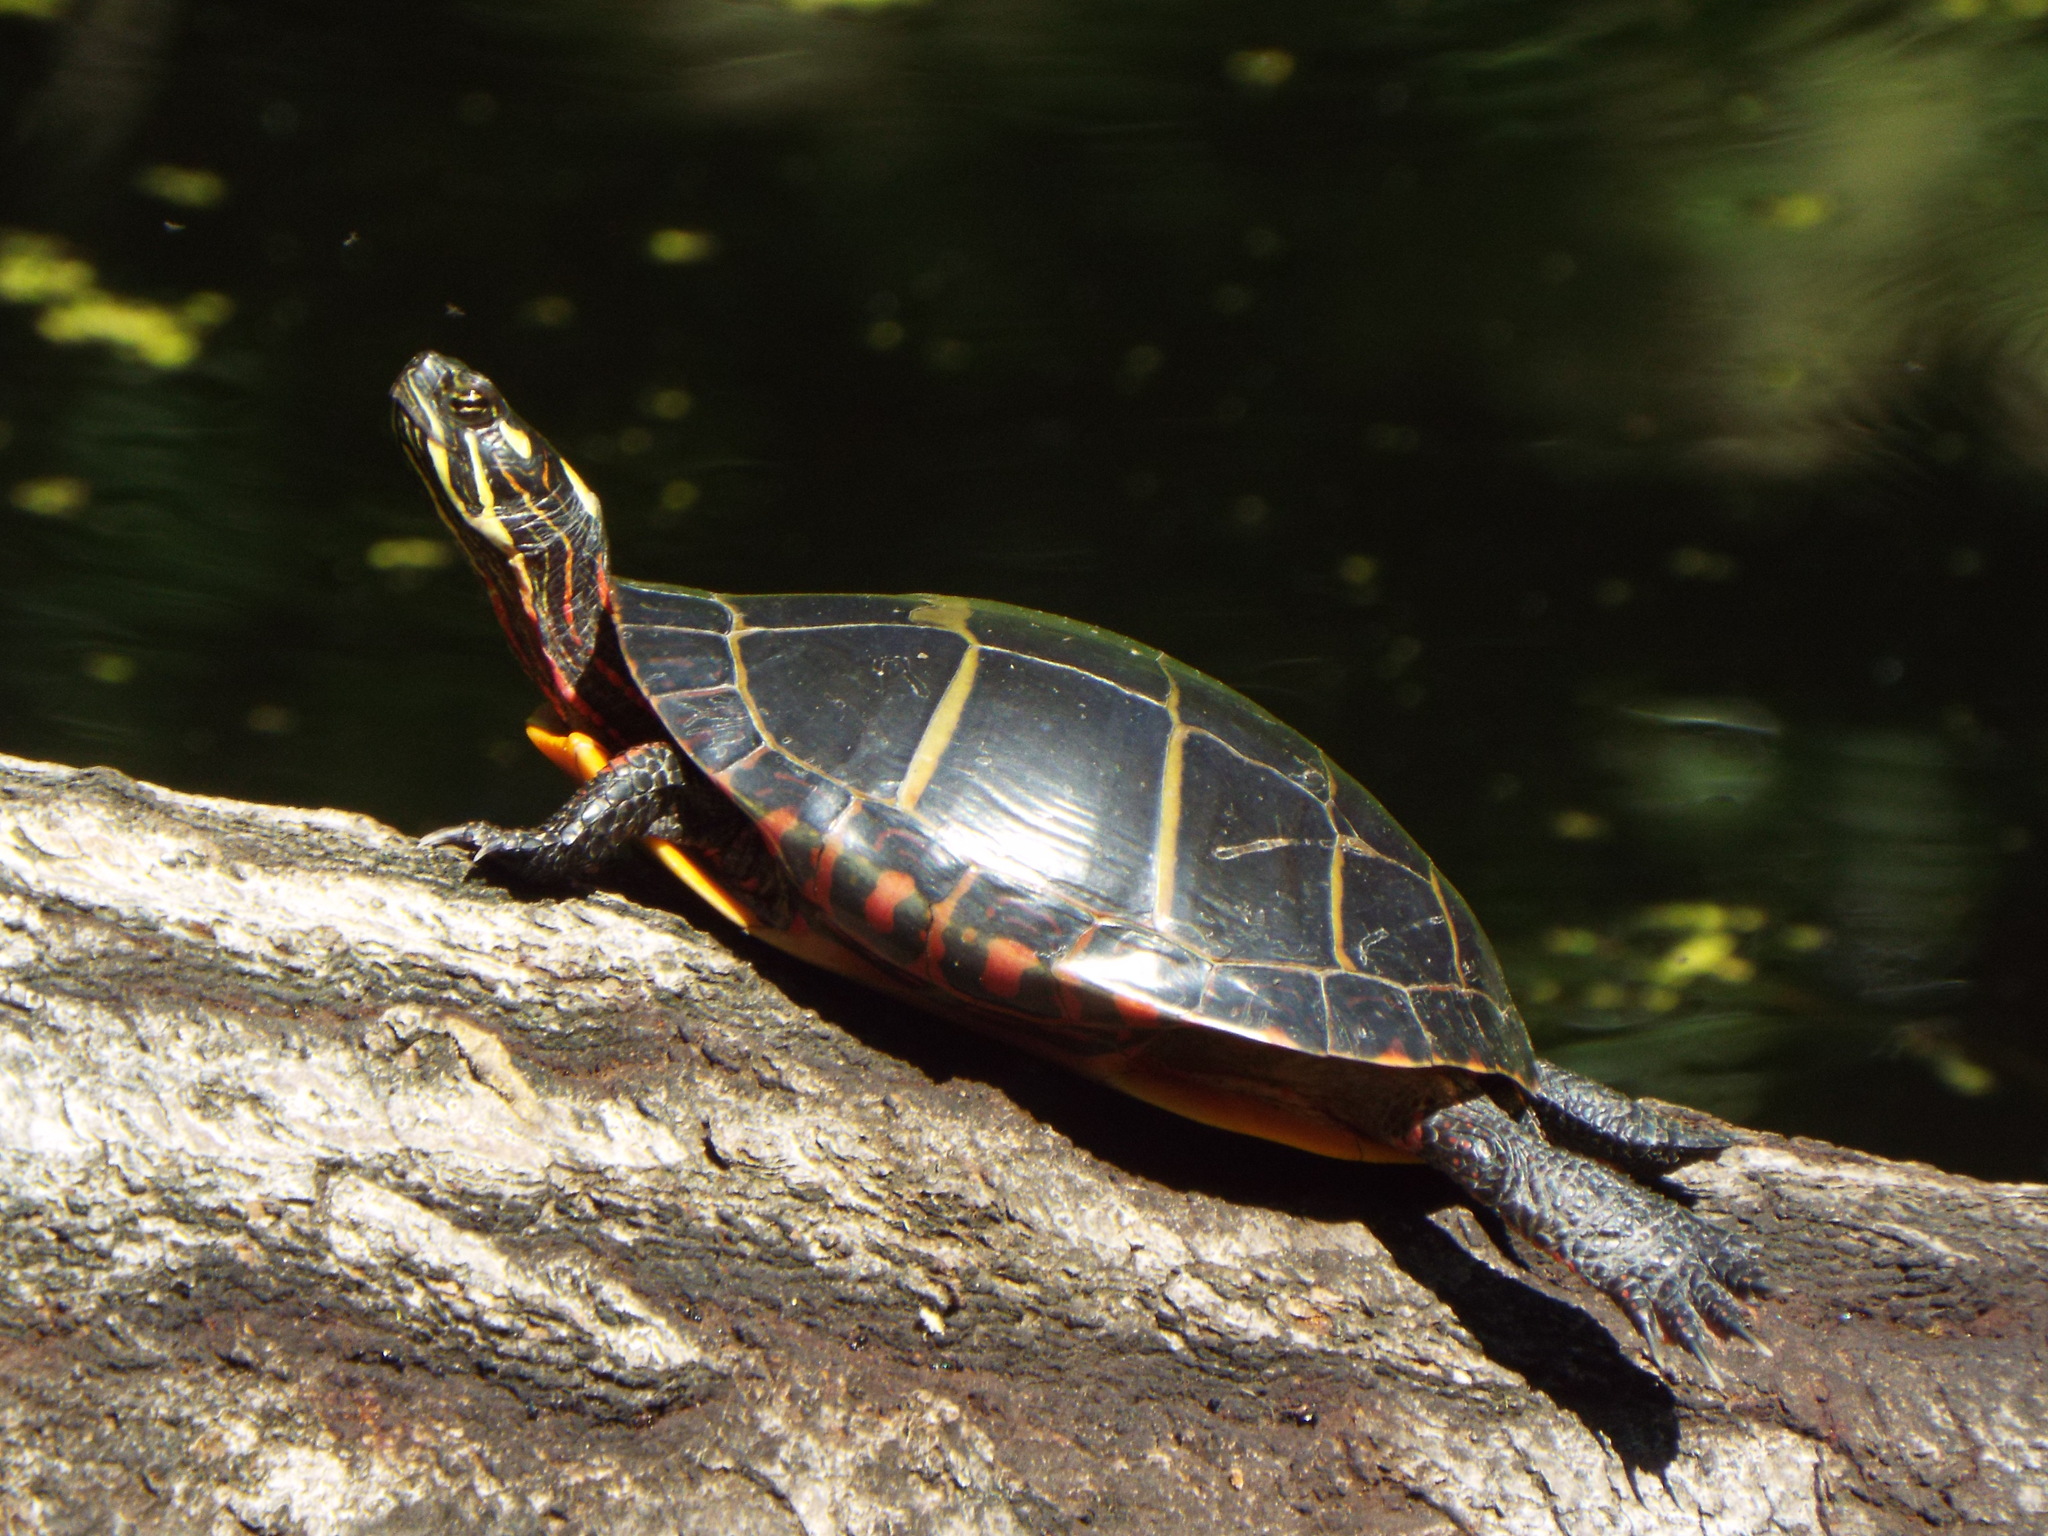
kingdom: Animalia
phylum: Chordata
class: Testudines
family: Emydidae
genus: Chrysemys
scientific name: Chrysemys picta
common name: Painted turtle
